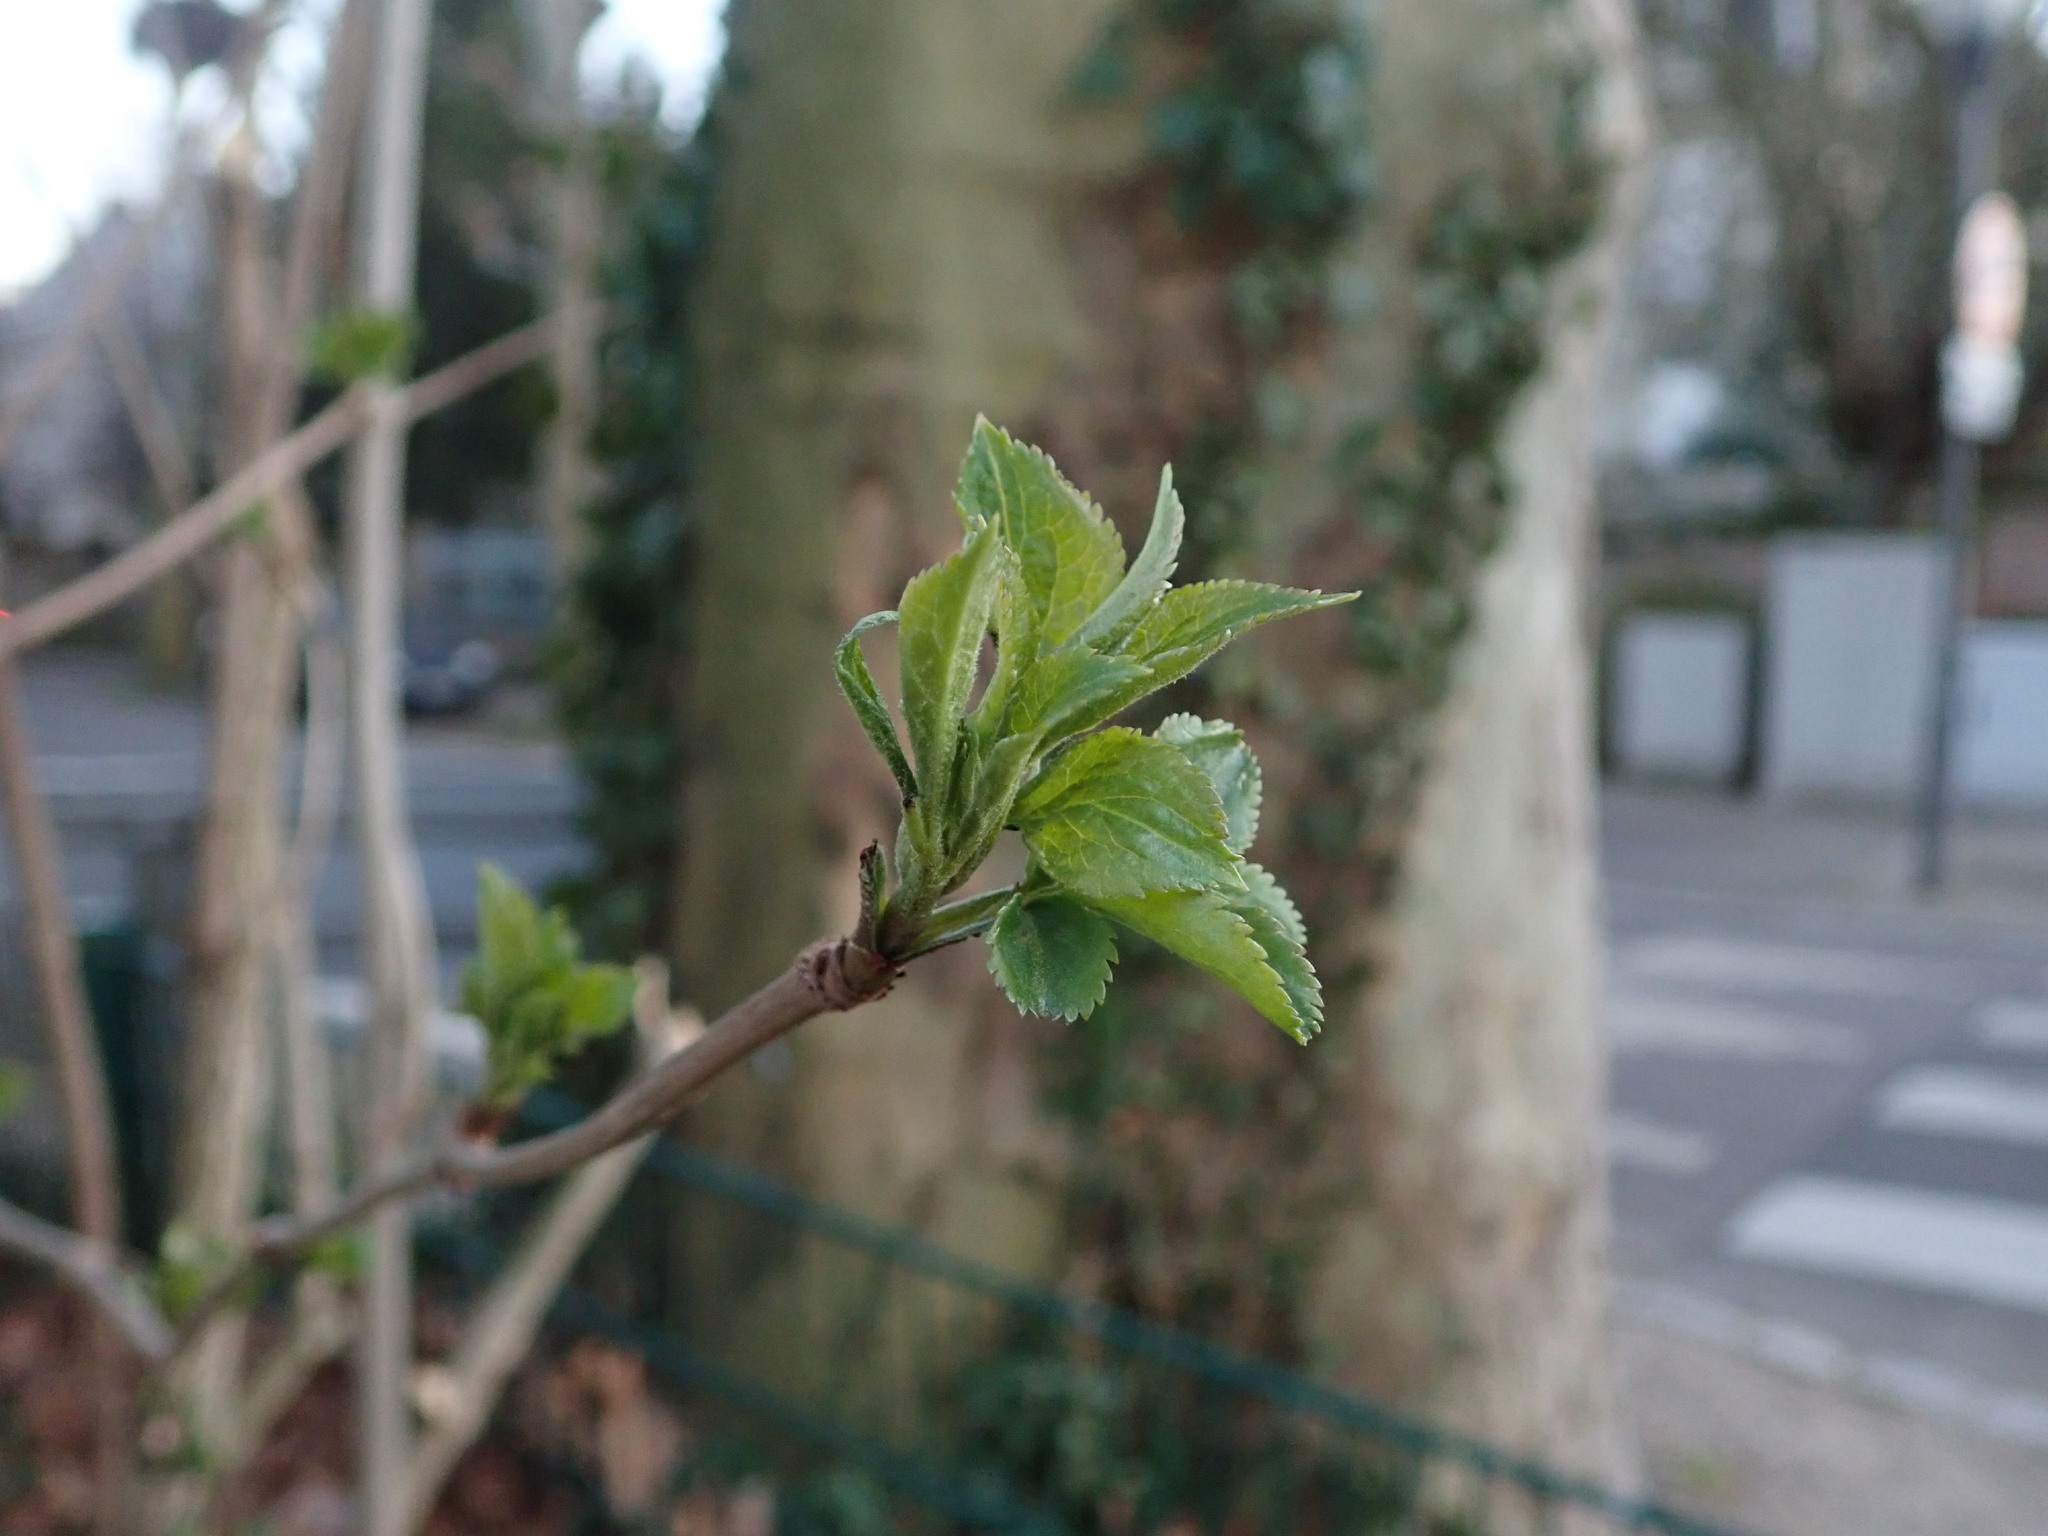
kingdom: Plantae
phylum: Tracheophyta
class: Magnoliopsida
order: Dipsacales
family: Viburnaceae
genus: Sambucus
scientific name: Sambucus nigra
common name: Elder
